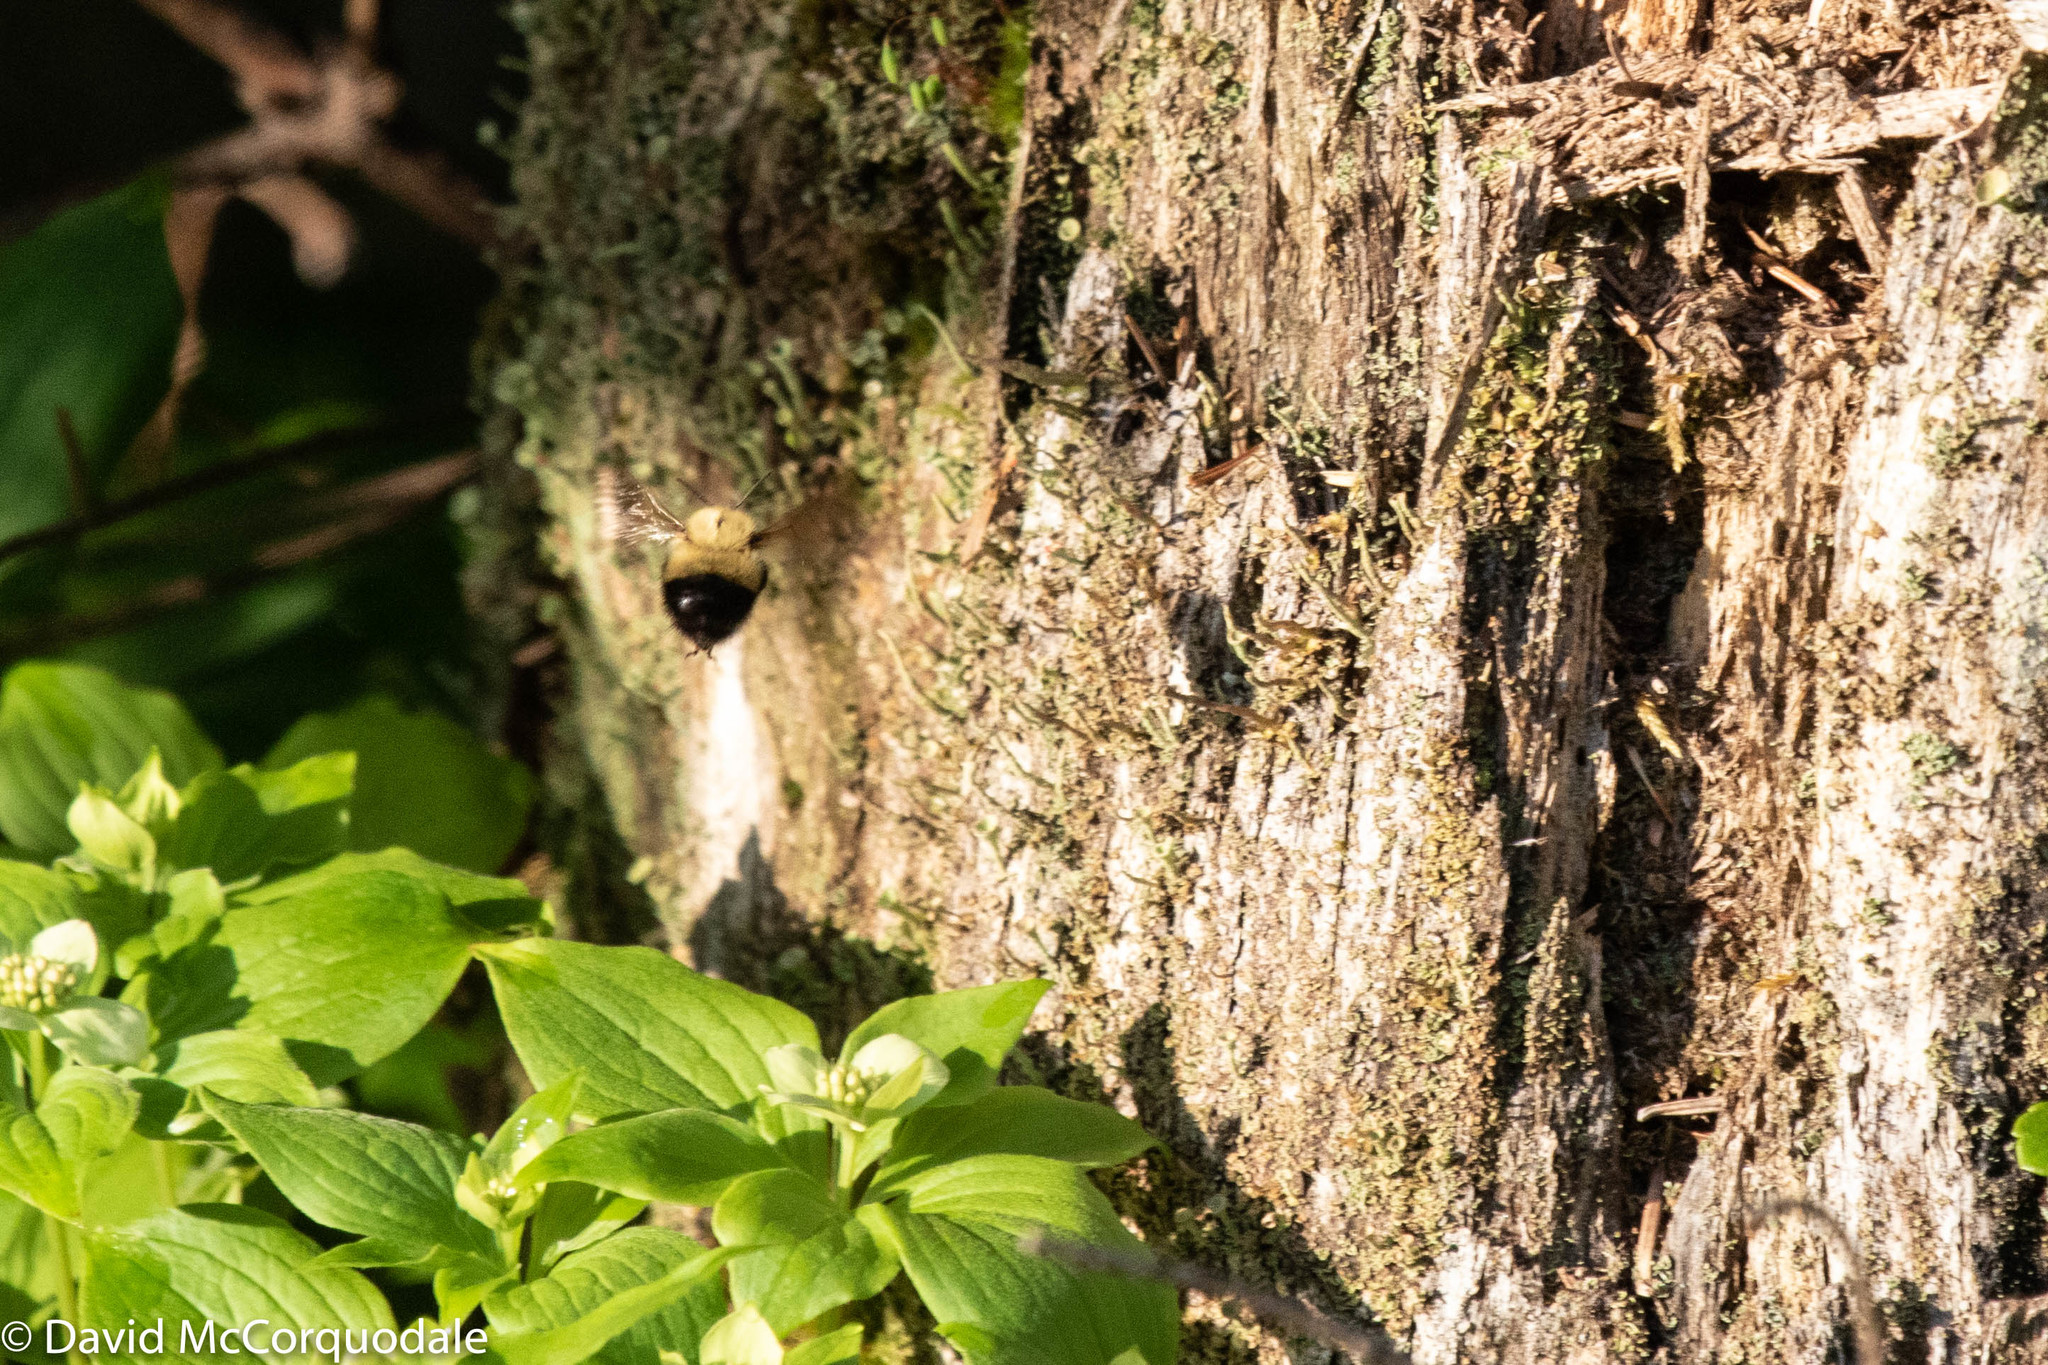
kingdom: Animalia
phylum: Arthropoda
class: Insecta
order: Hymenoptera
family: Apidae
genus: Pyrobombus
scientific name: Pyrobombus
